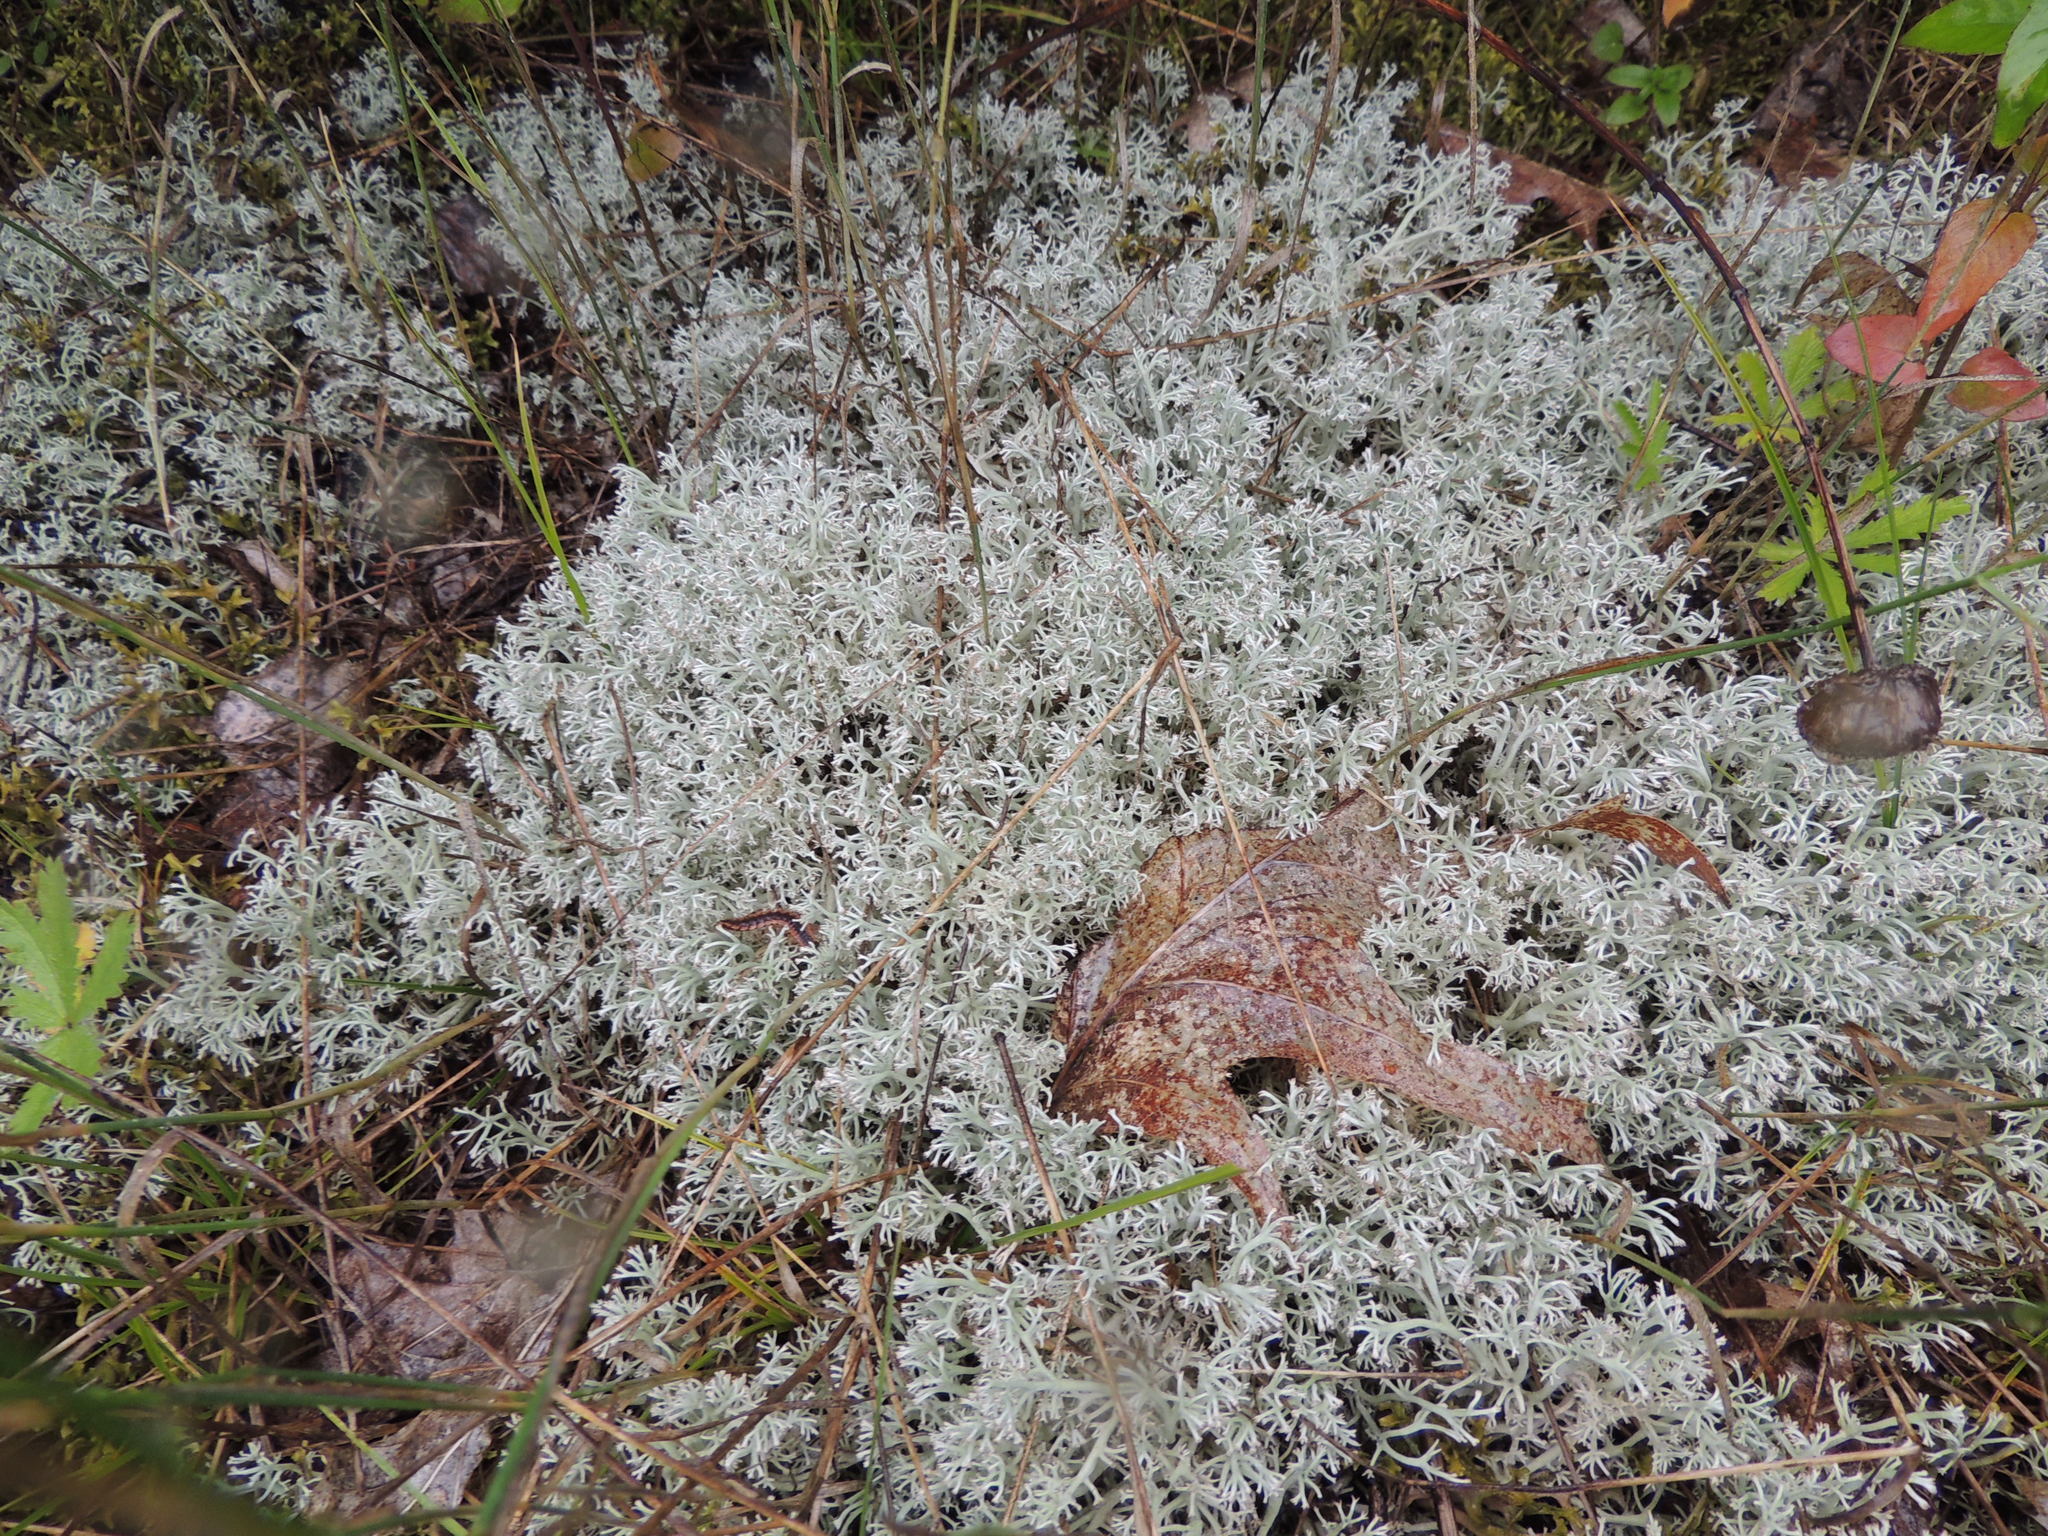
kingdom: Fungi
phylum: Ascomycota
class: Lecanoromycetes
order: Lecanorales
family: Cladoniaceae
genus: Cladonia
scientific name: Cladonia rangiferina
